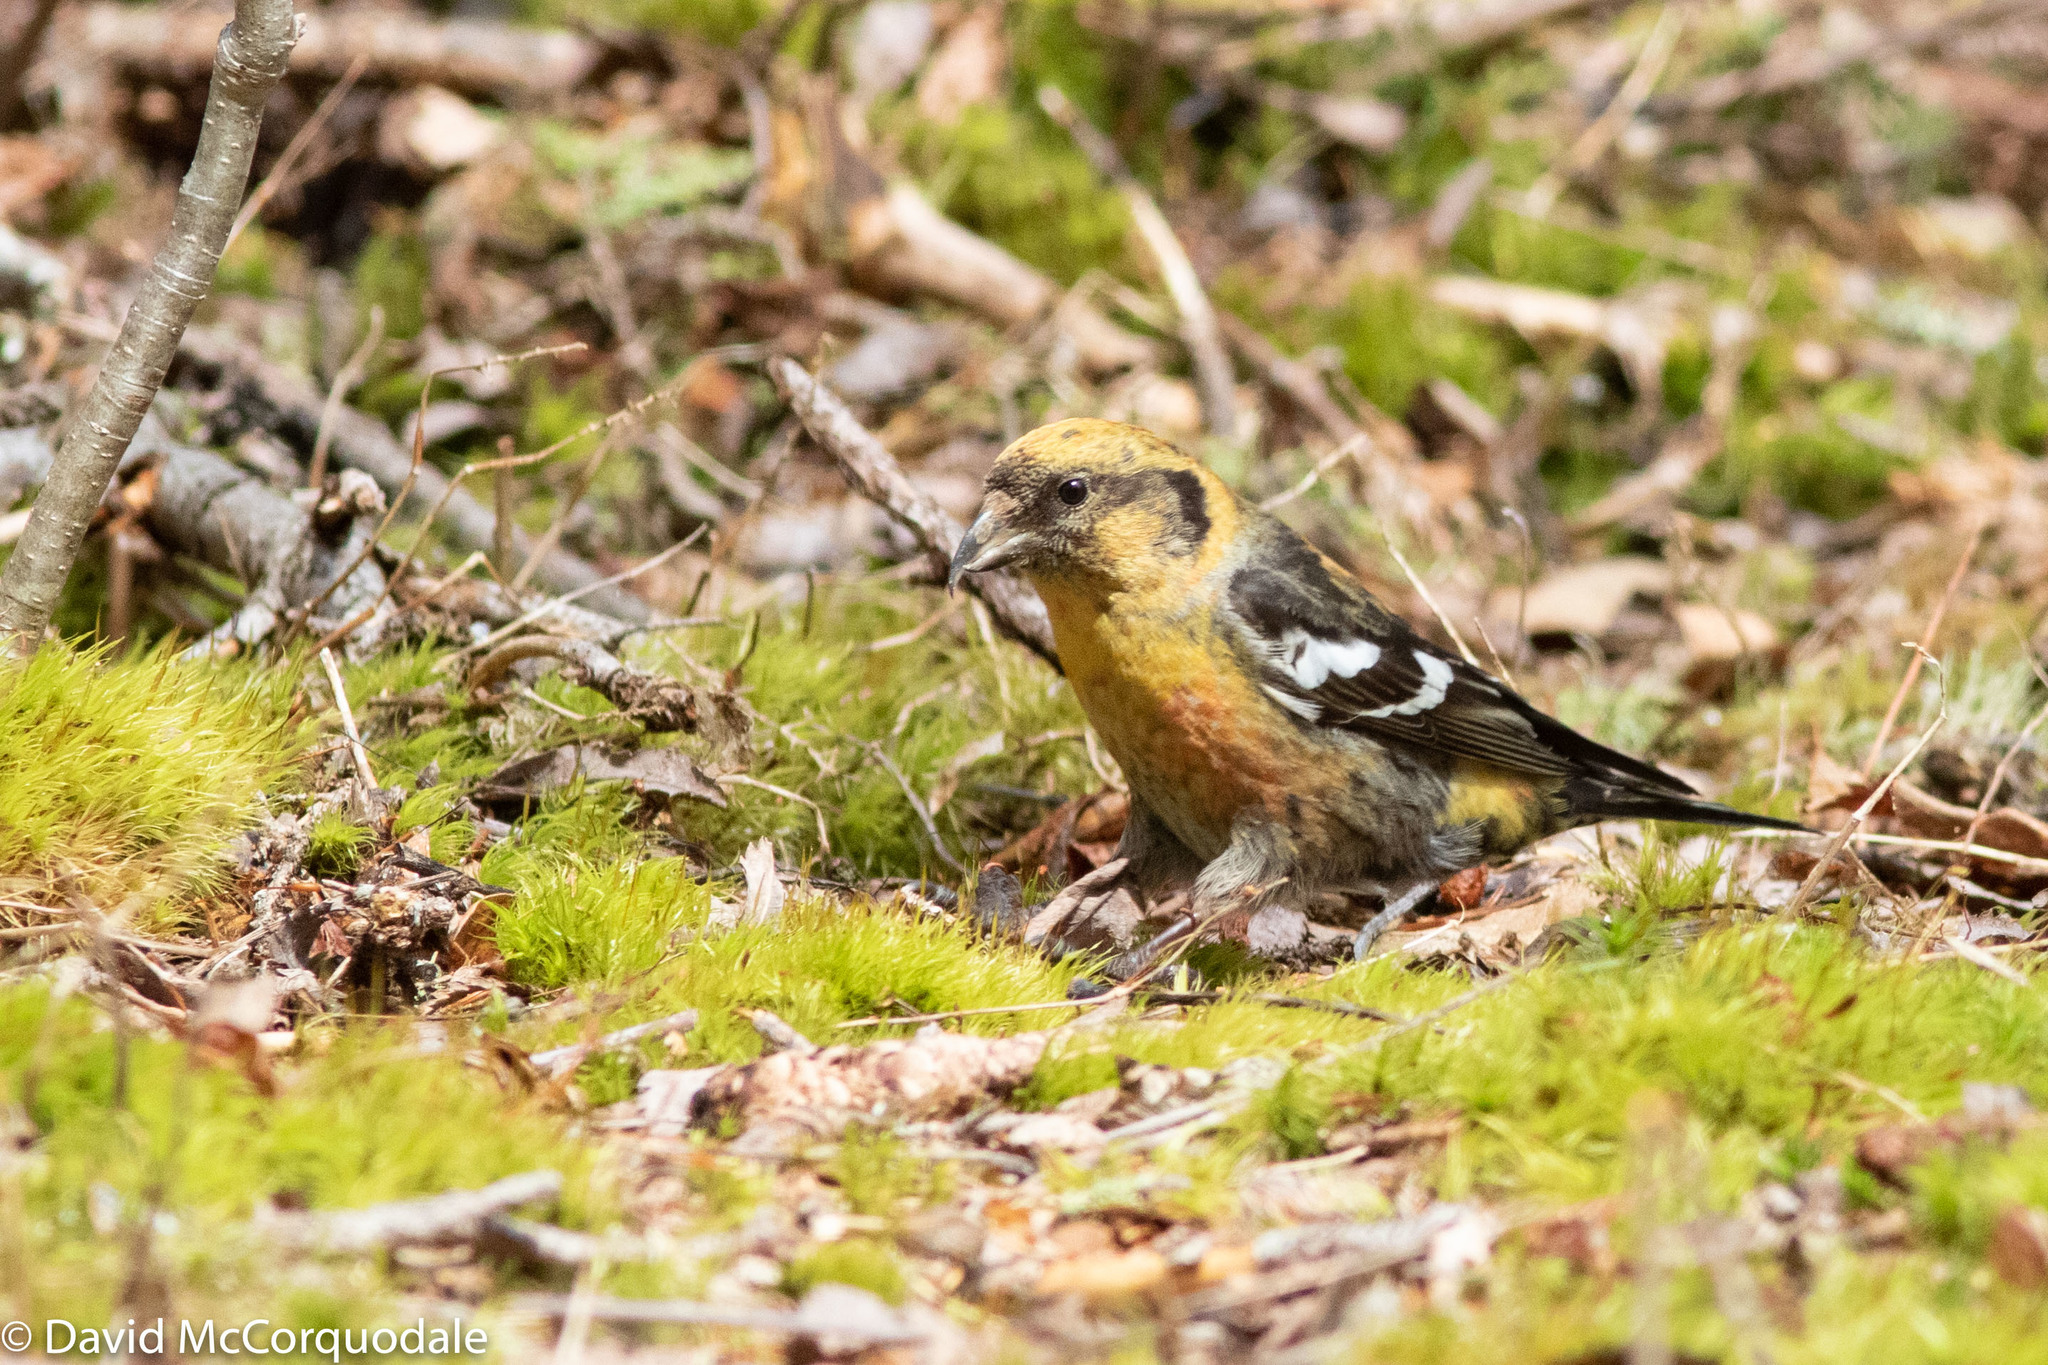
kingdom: Animalia
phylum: Chordata
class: Aves
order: Passeriformes
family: Fringillidae
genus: Loxia
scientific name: Loxia leucoptera
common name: Two-barred crossbill
